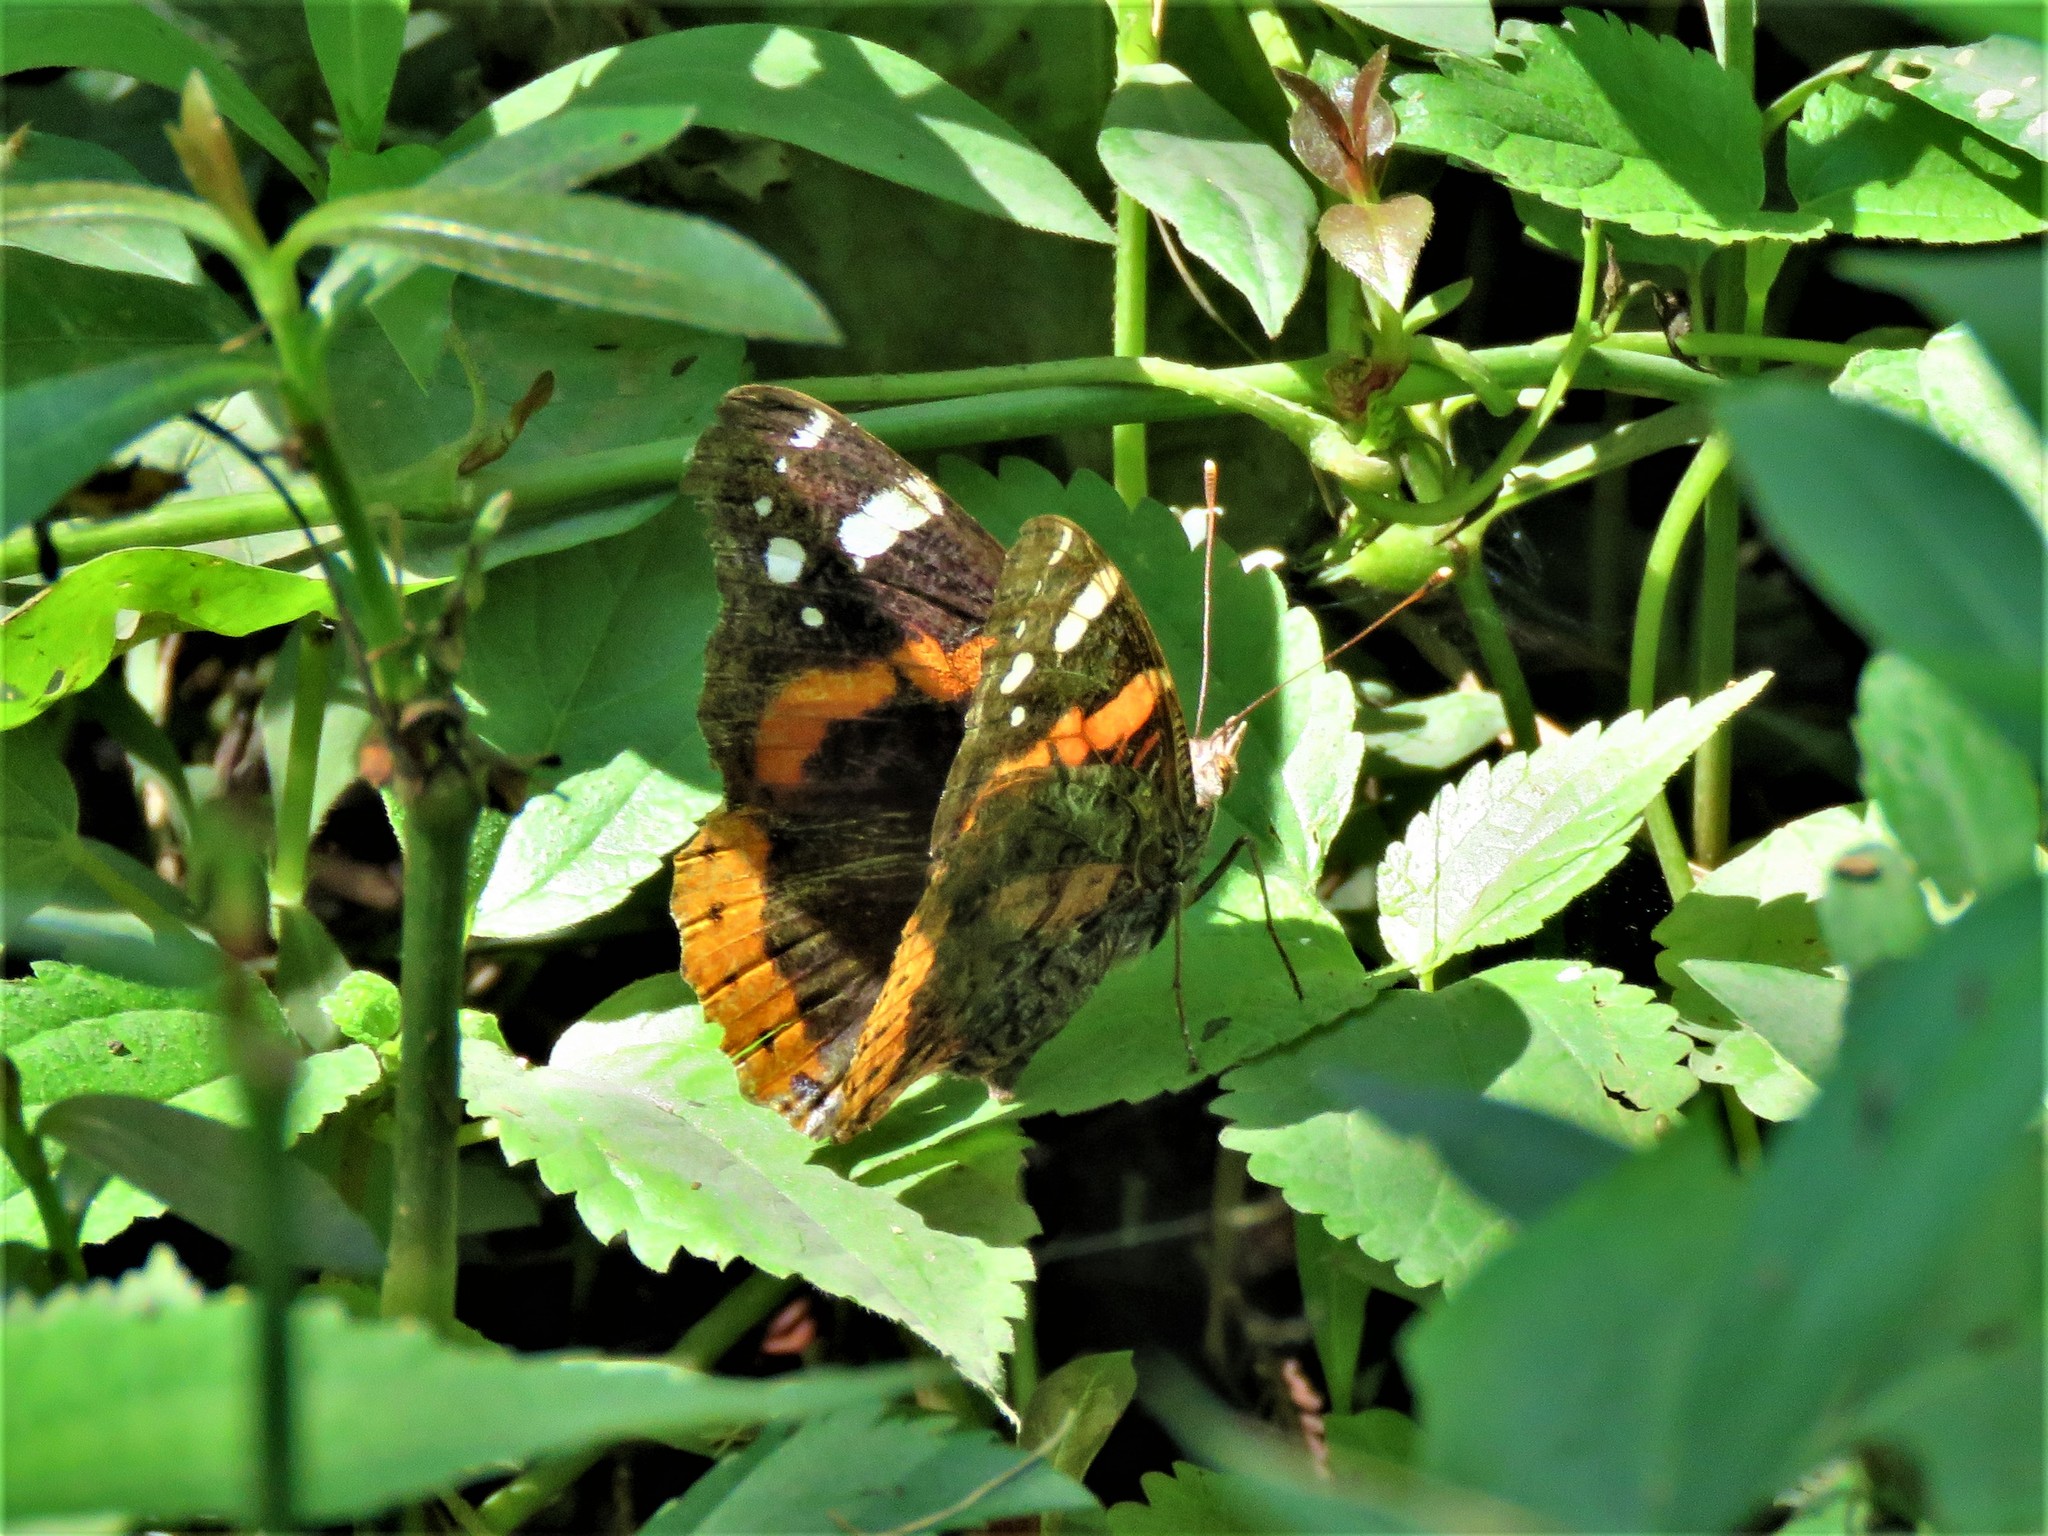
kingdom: Animalia
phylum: Arthropoda
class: Insecta
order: Lepidoptera
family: Nymphalidae
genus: Vanessa
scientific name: Vanessa atalanta
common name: Red admiral
